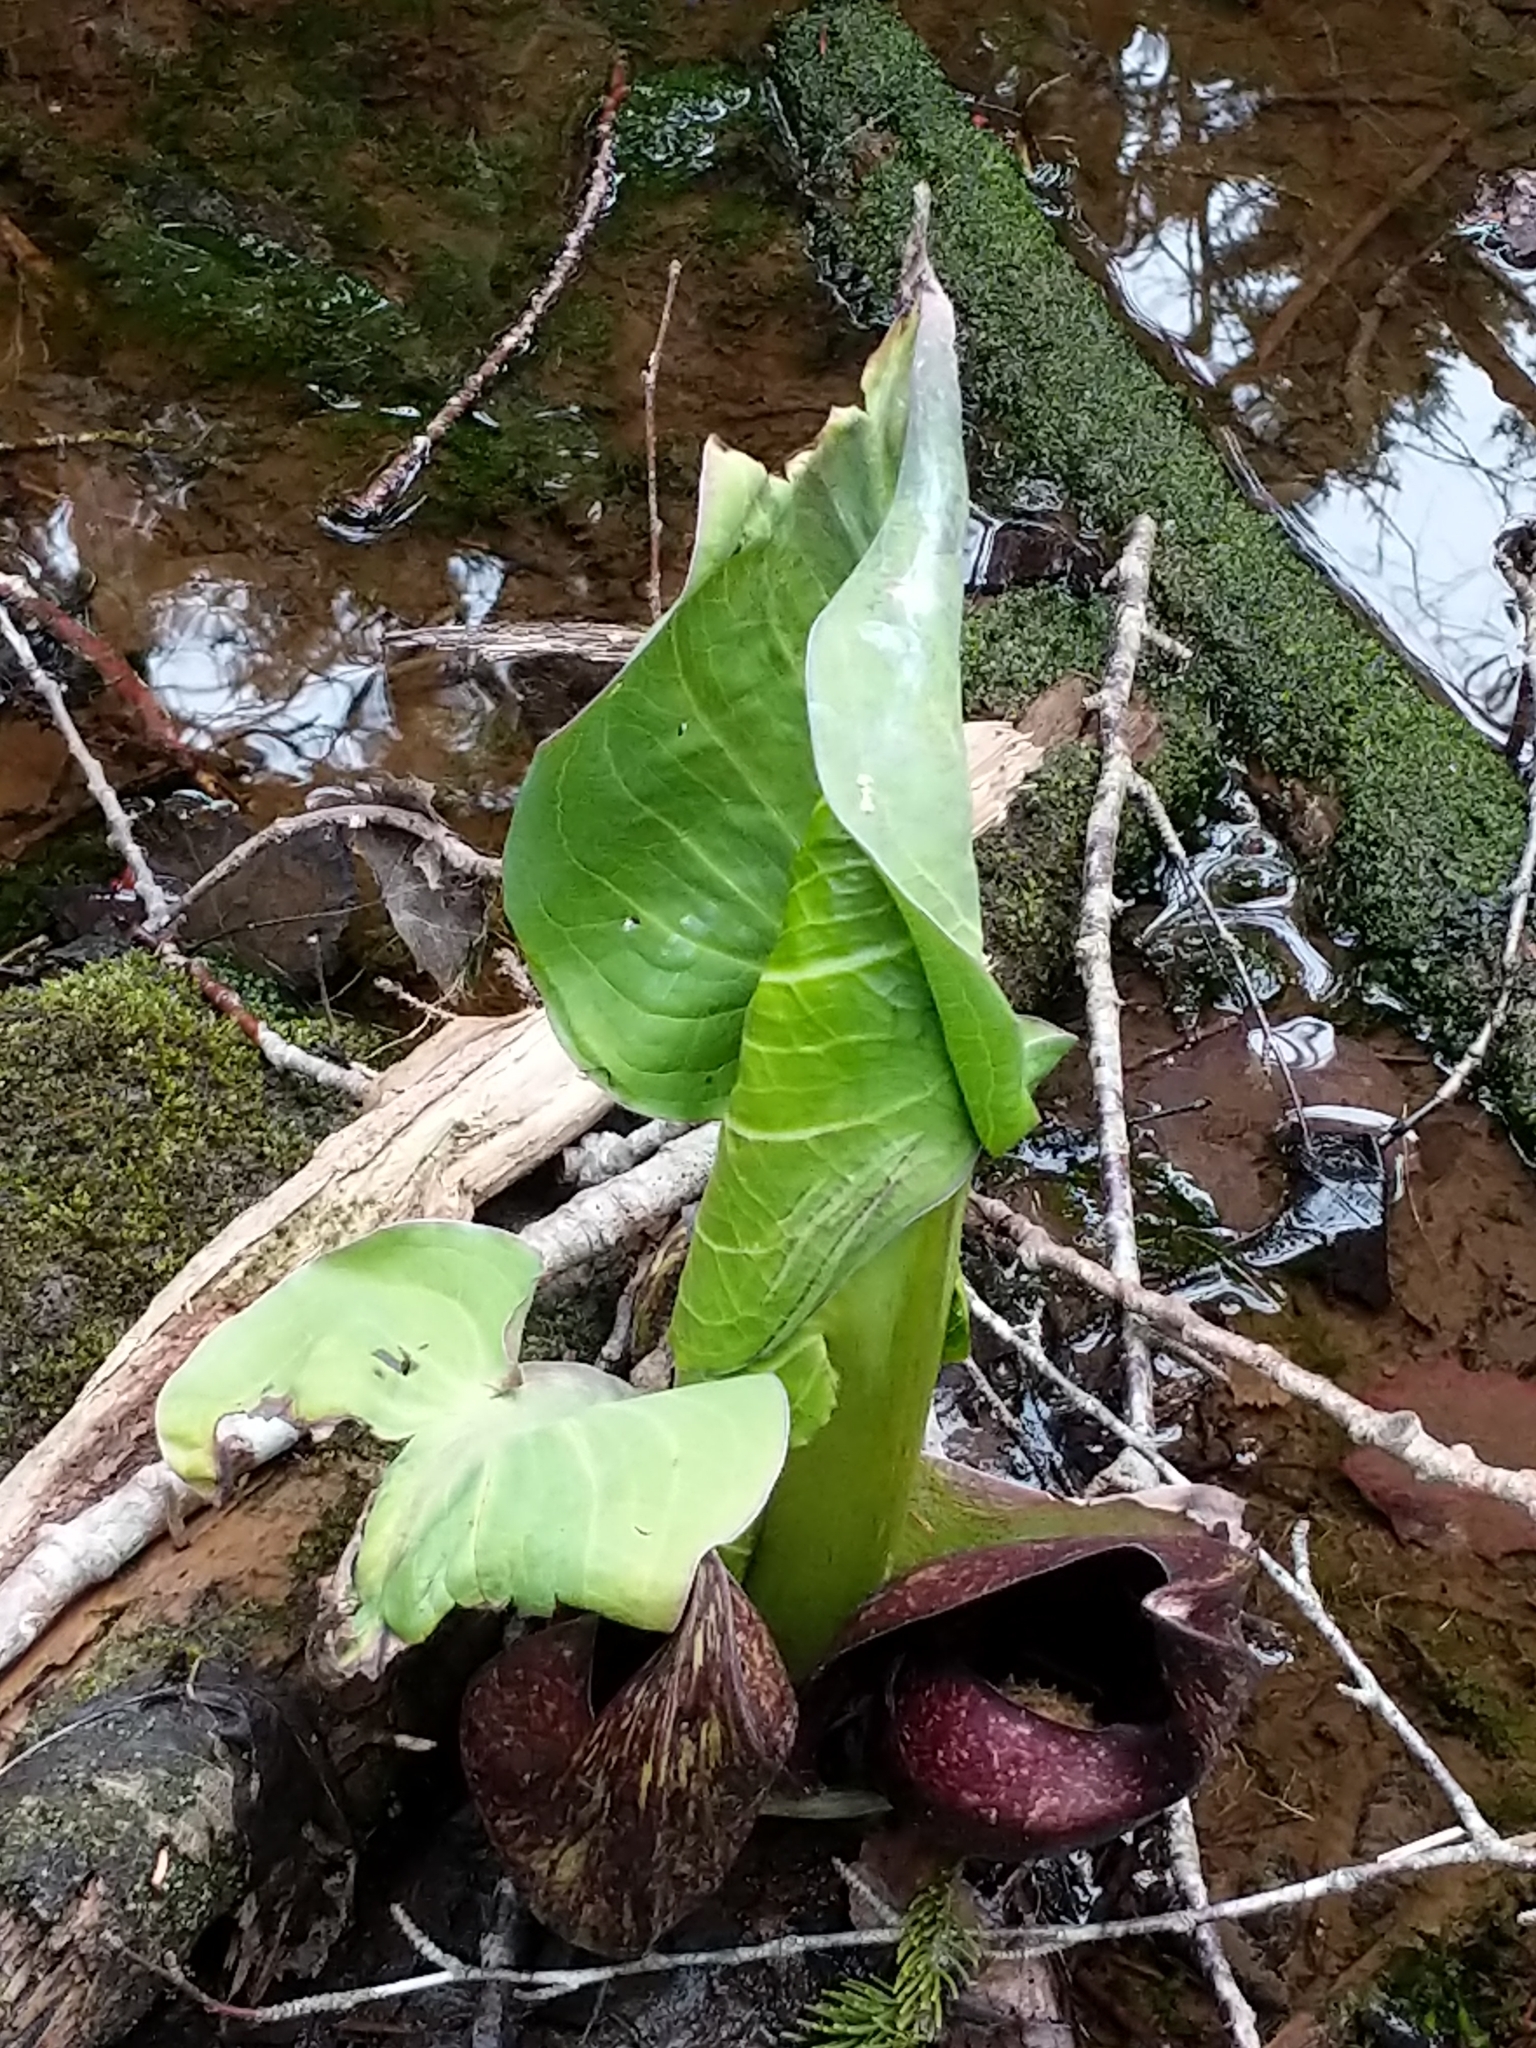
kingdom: Plantae
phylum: Tracheophyta
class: Liliopsida
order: Alismatales
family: Araceae
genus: Symplocarpus
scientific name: Symplocarpus foetidus
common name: Eastern skunk cabbage
